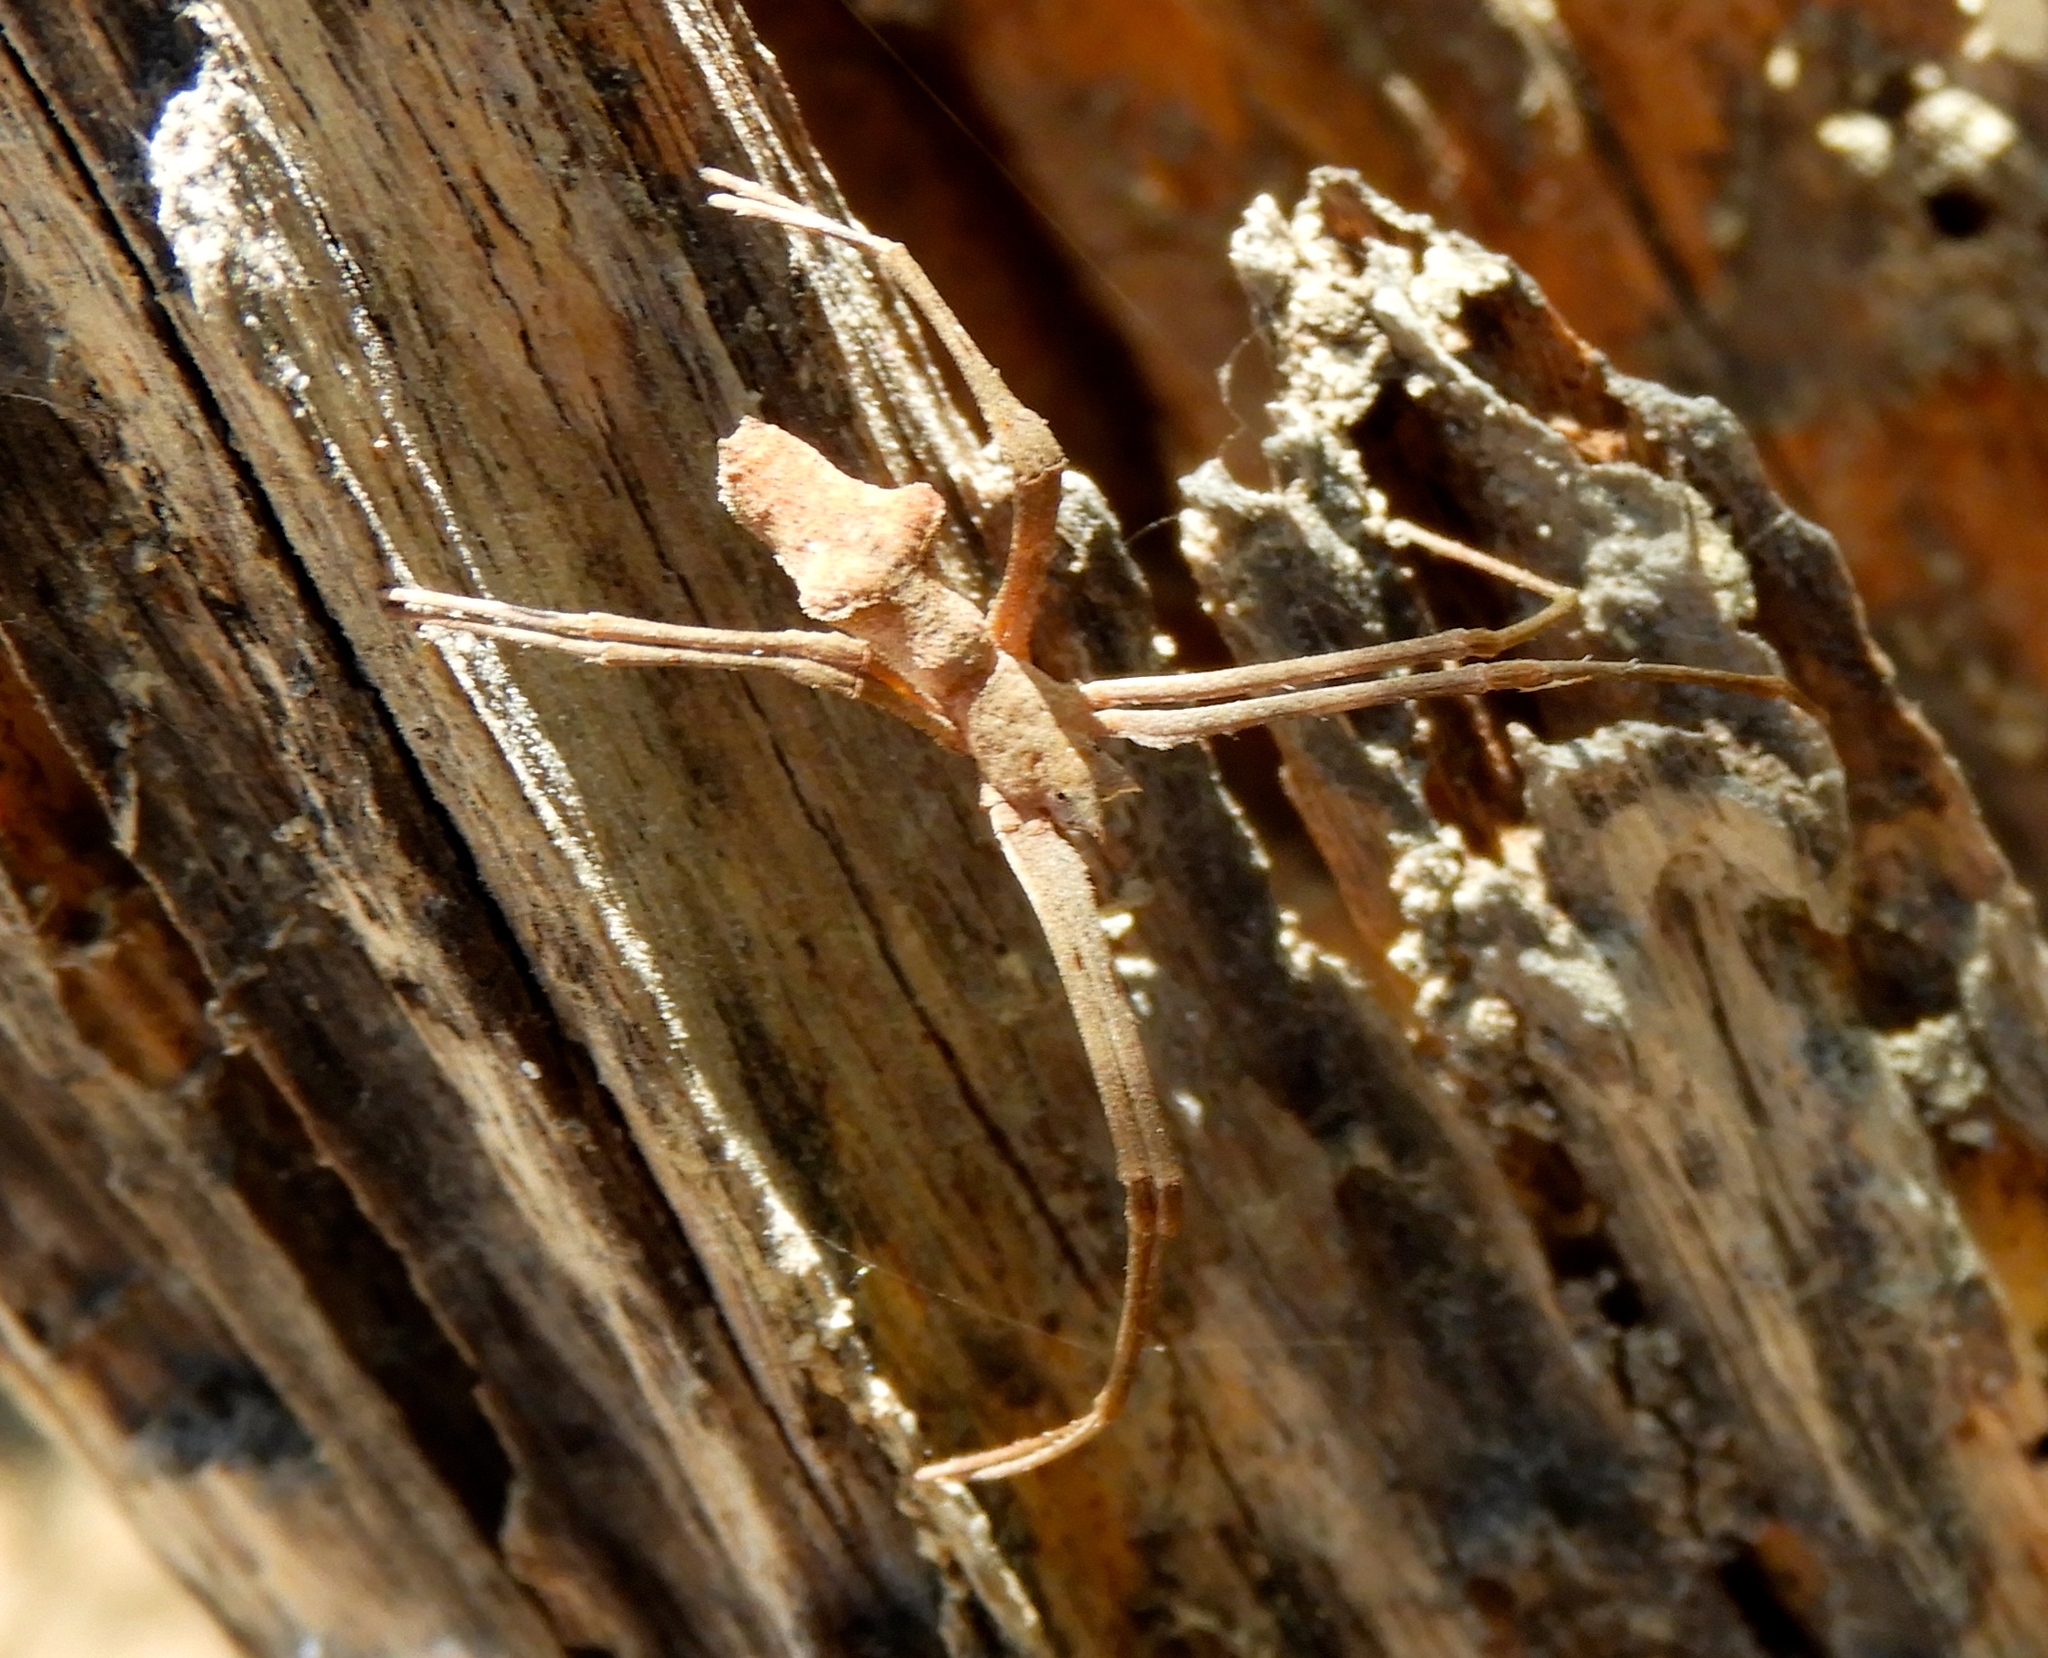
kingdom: Animalia
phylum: Arthropoda
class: Arachnida
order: Araneae
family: Deinopidae
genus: Deinopis
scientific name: Deinopis aurita
